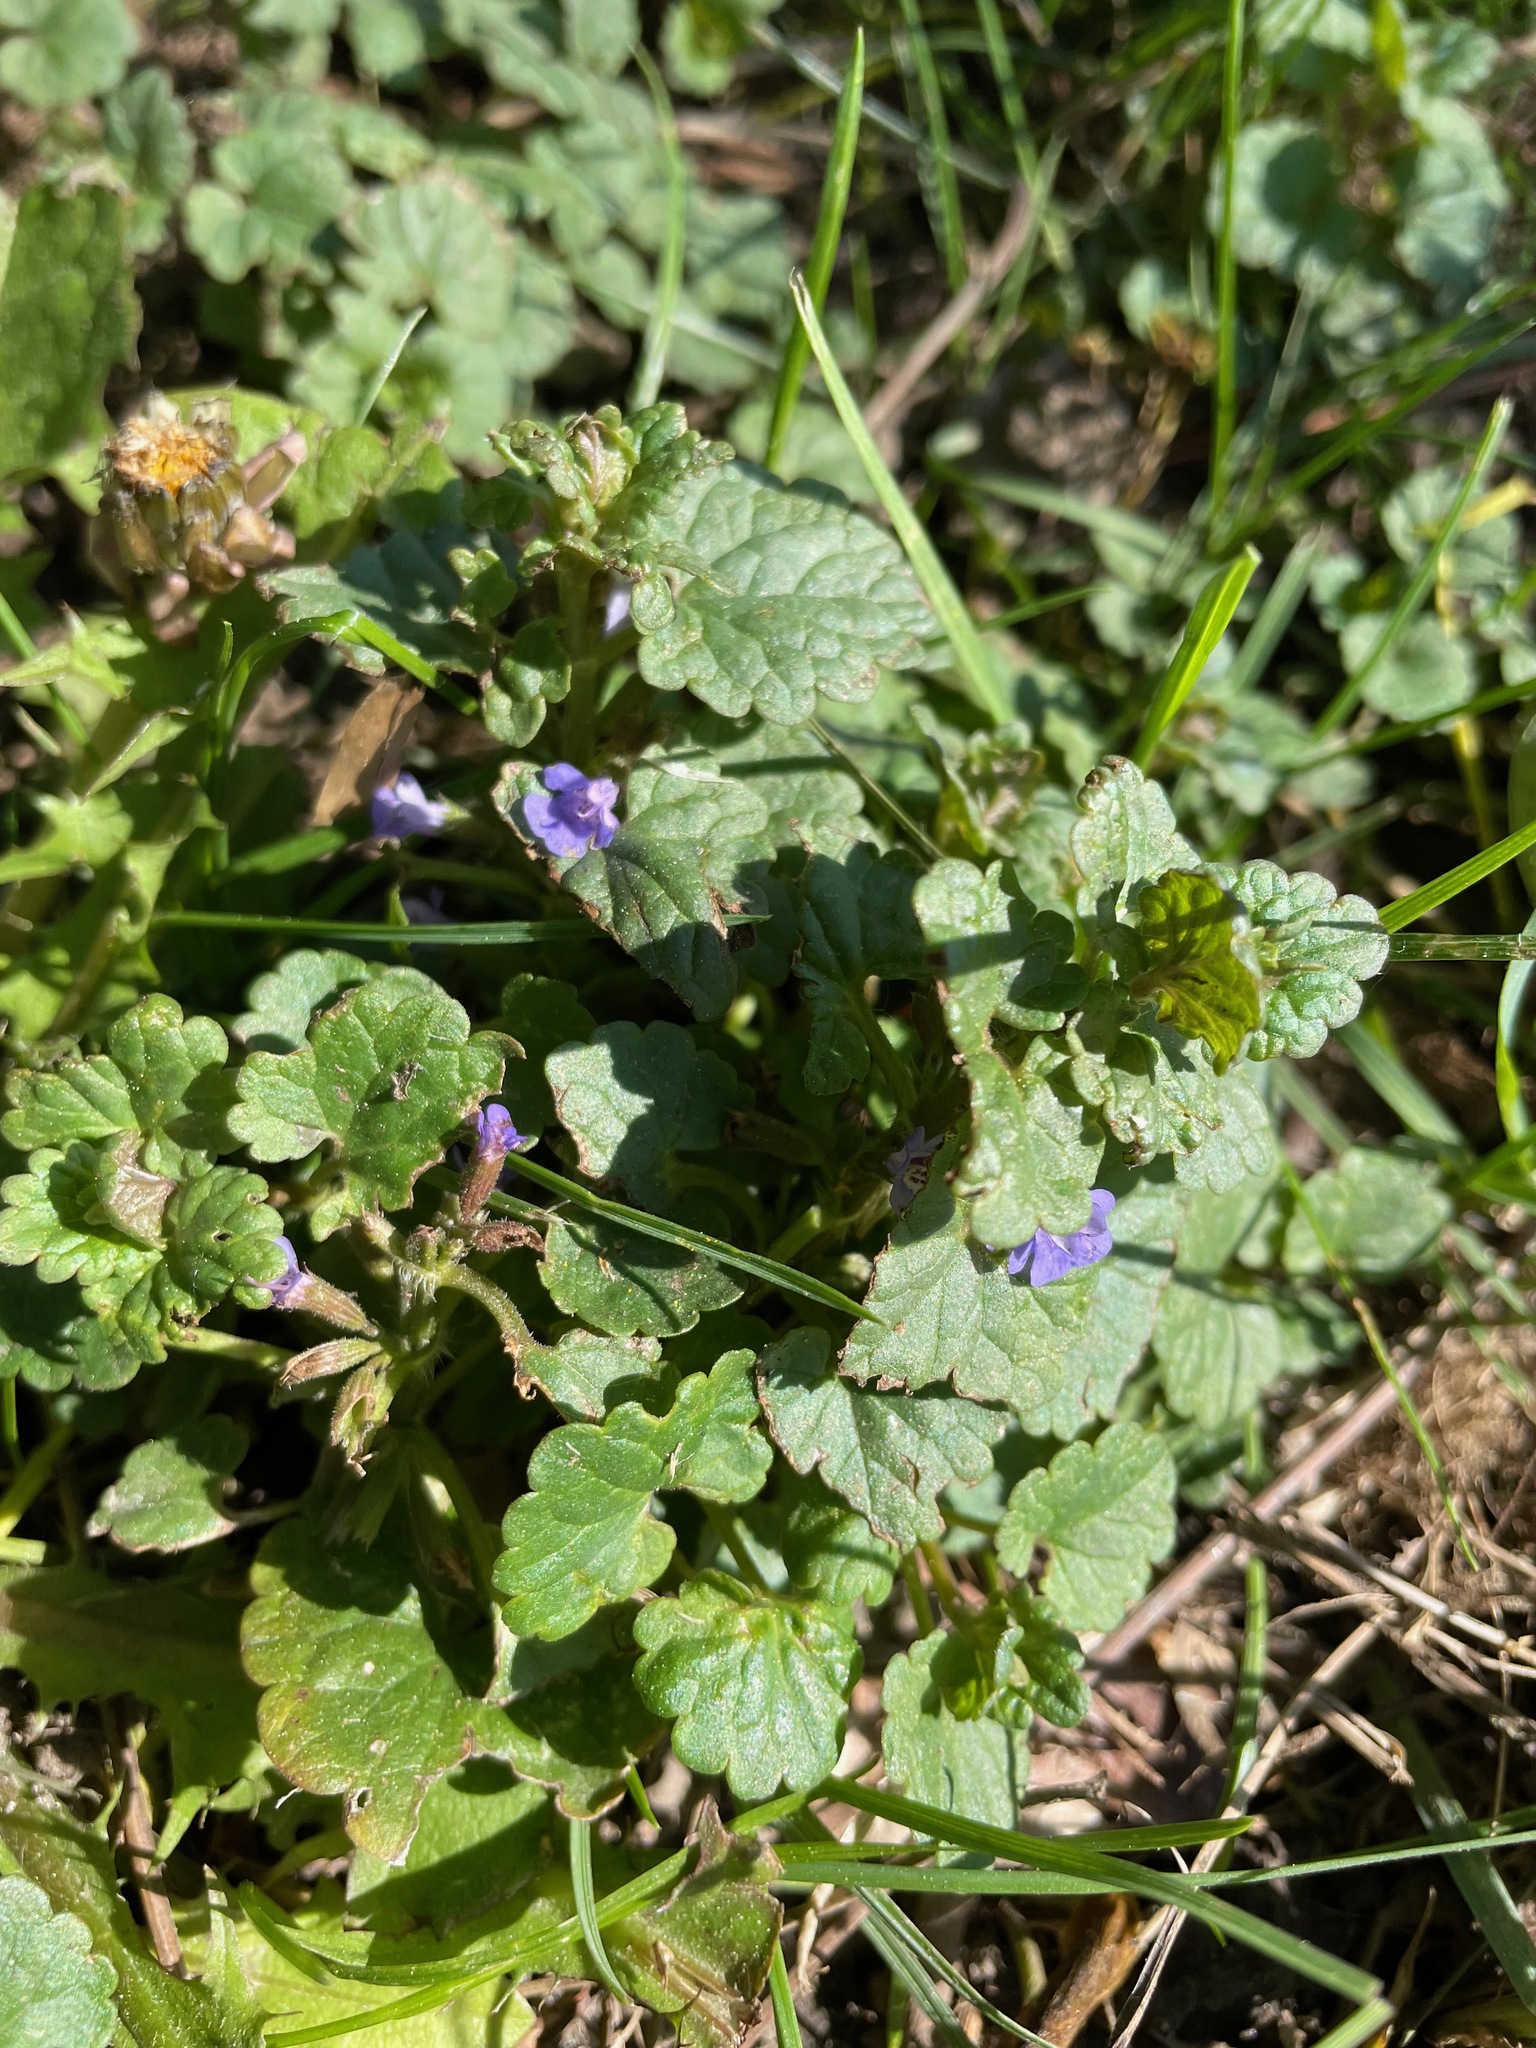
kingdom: Plantae
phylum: Tracheophyta
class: Magnoliopsida
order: Lamiales
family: Lamiaceae
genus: Glechoma
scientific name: Glechoma hederacea
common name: Ground ivy
